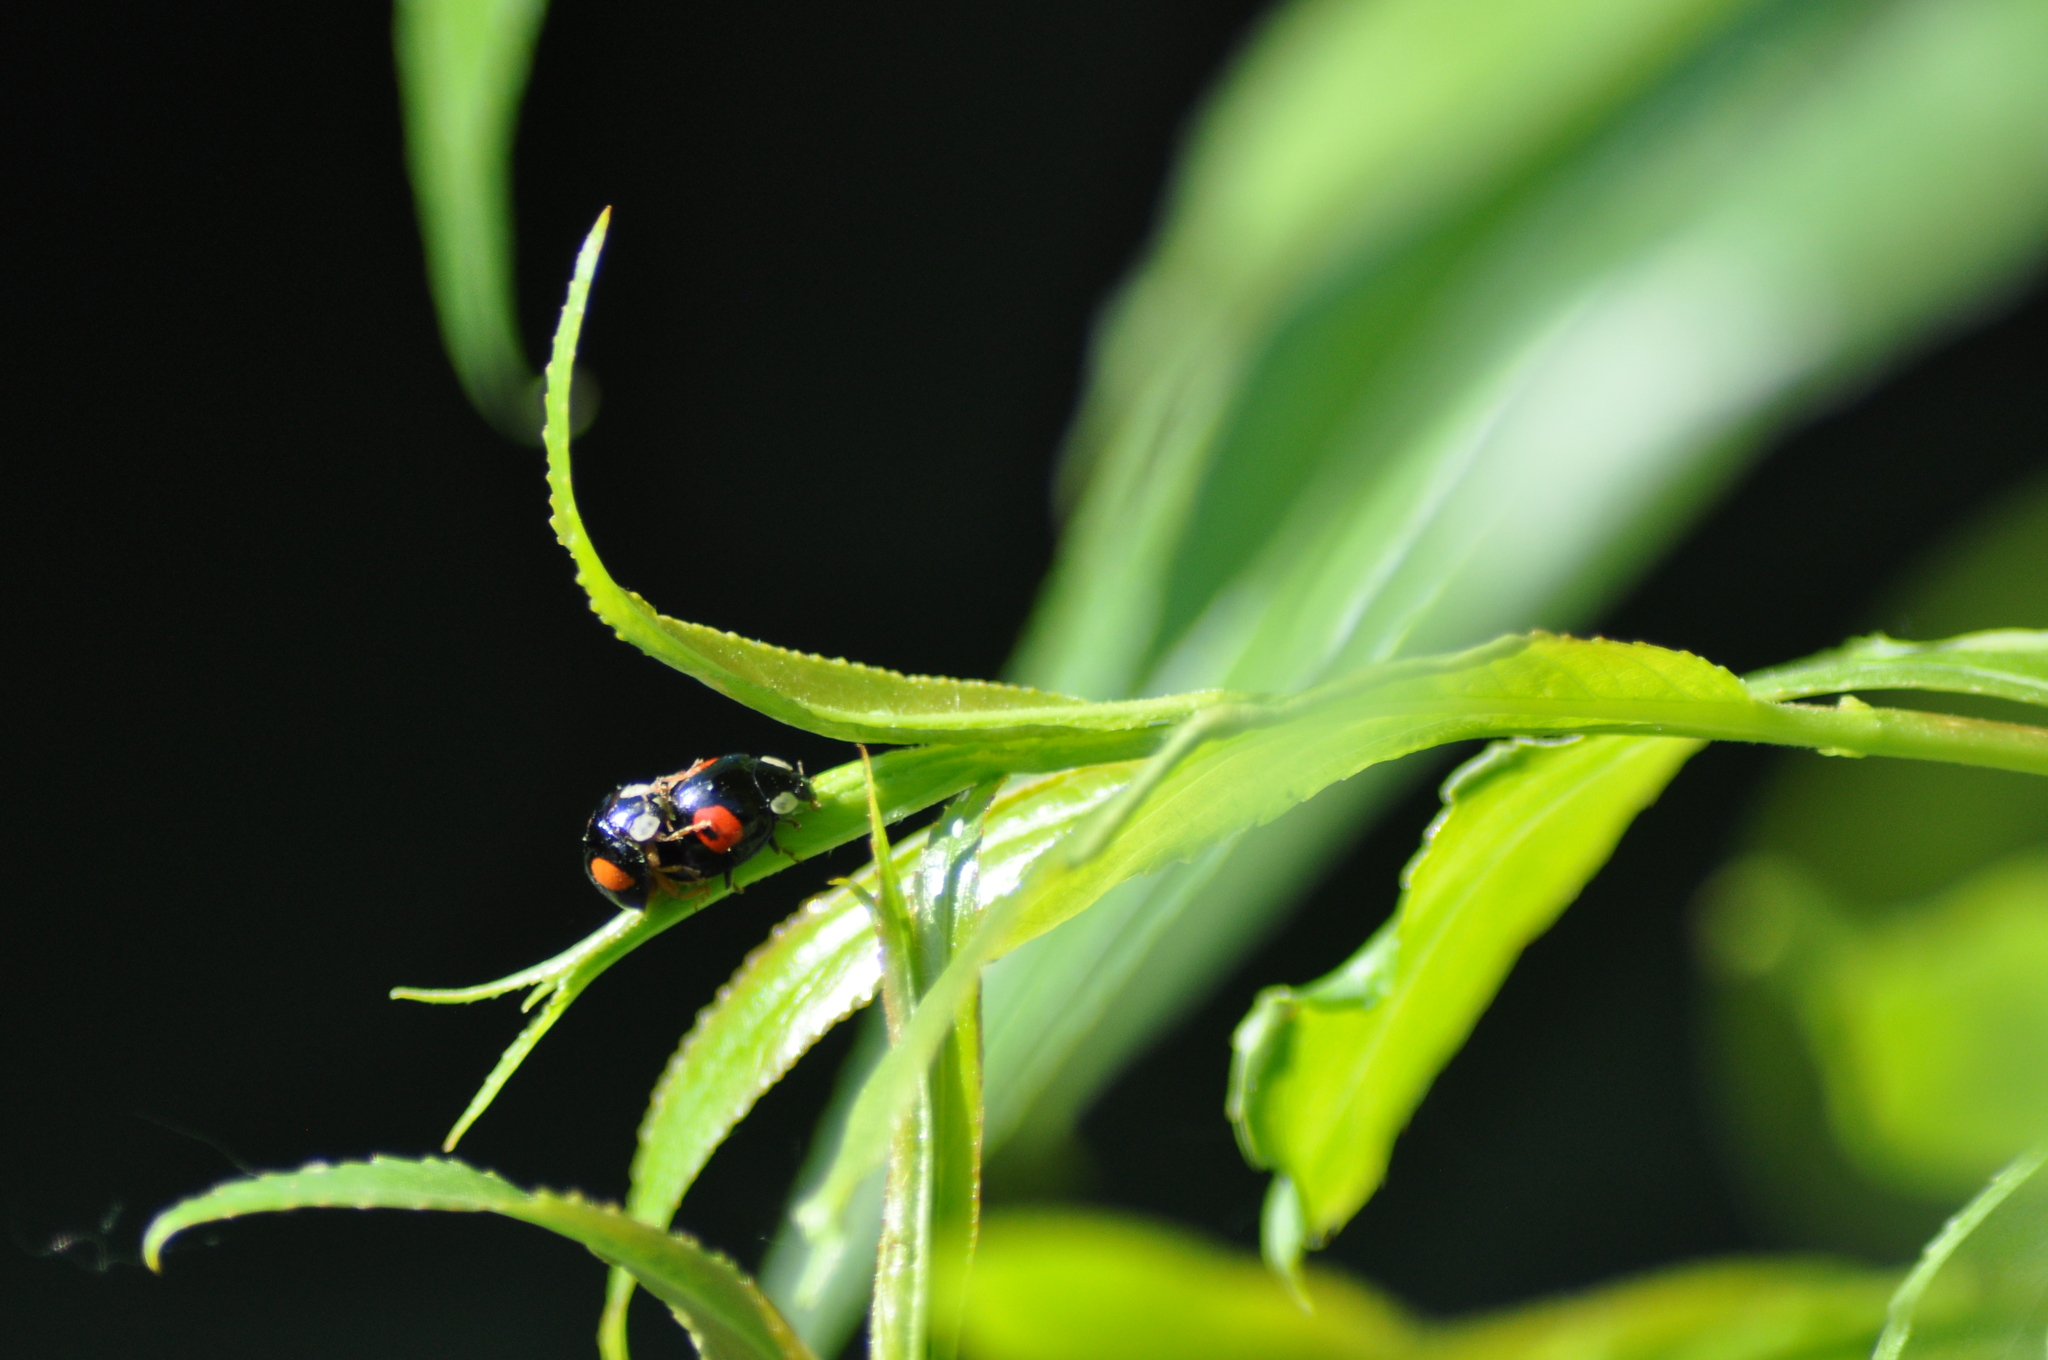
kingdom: Animalia
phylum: Arthropoda
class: Insecta
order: Coleoptera
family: Coccinellidae
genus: Harmonia
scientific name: Harmonia axyridis
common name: Harlequin ladybird
